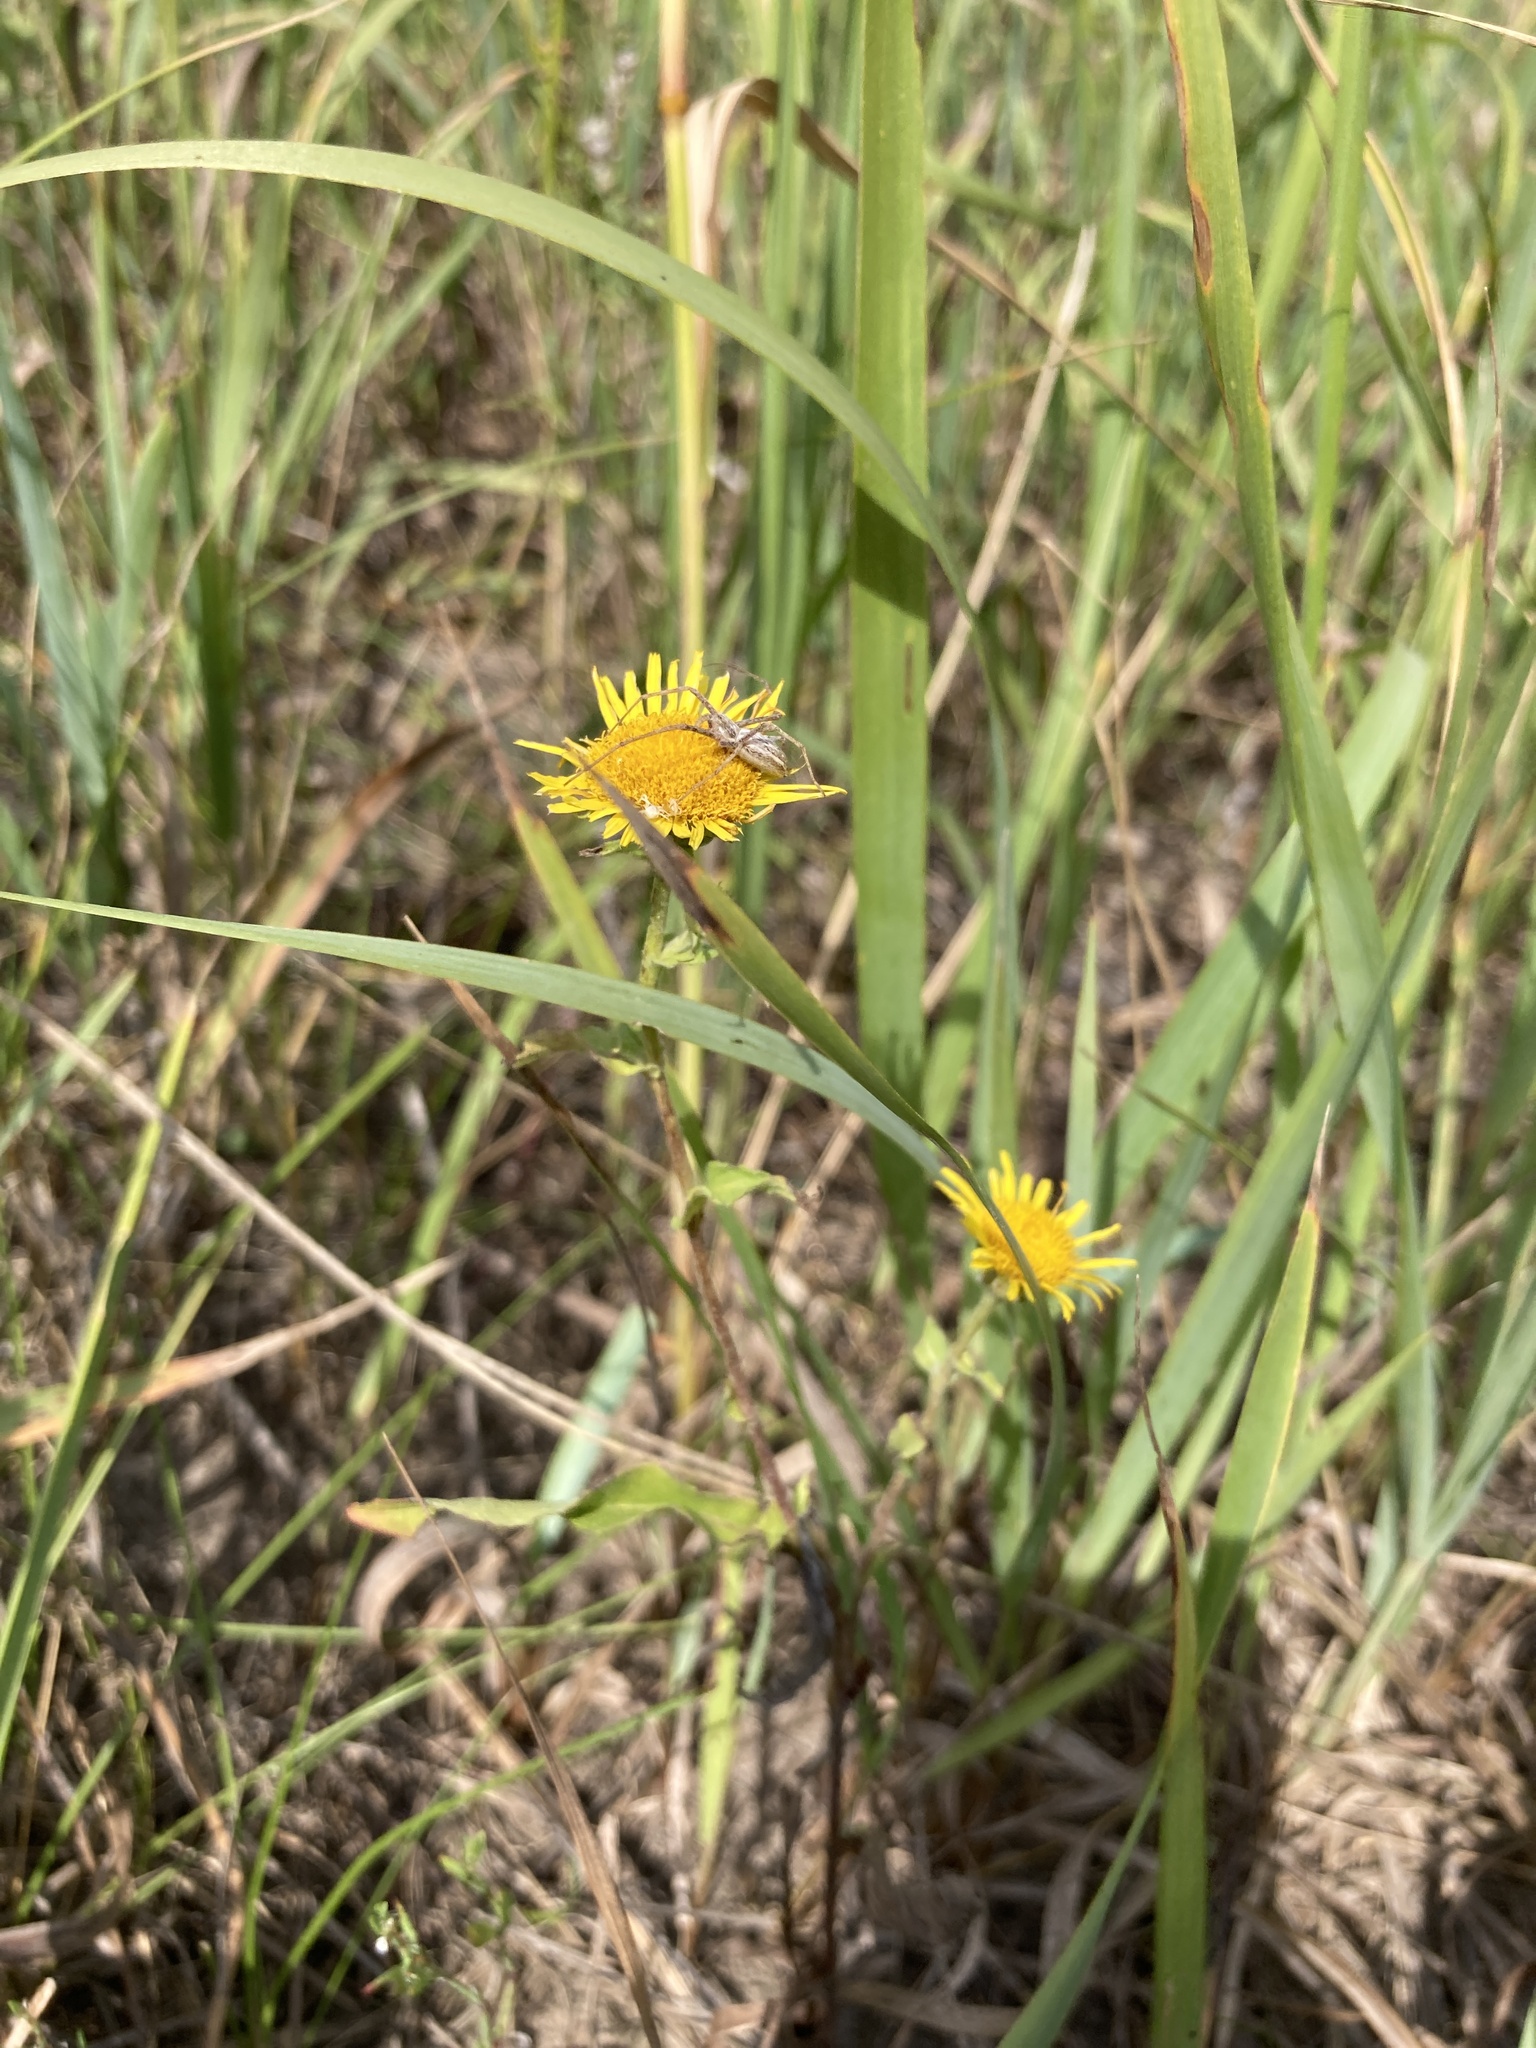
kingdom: Plantae
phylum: Tracheophyta
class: Magnoliopsida
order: Asterales
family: Asteraceae
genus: Pentanema
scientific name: Pentanema britannicum
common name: British elecampane
